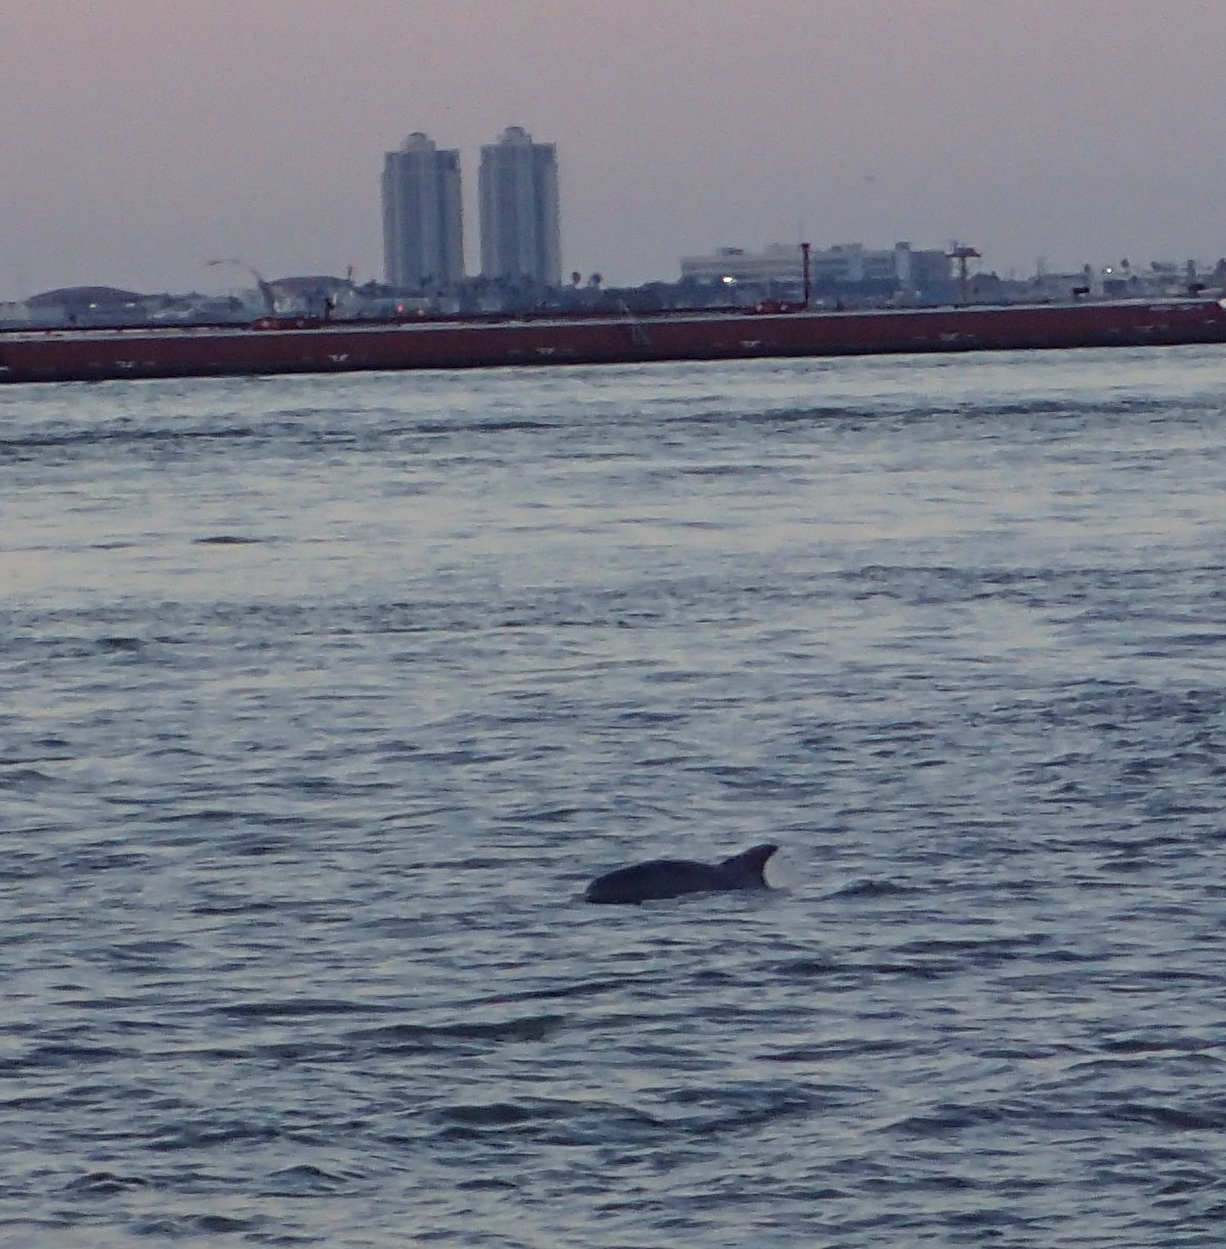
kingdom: Animalia
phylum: Chordata
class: Mammalia
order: Cetacea
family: Delphinidae
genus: Tursiops
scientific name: Tursiops truncatus
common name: Bottlenose dolphin
